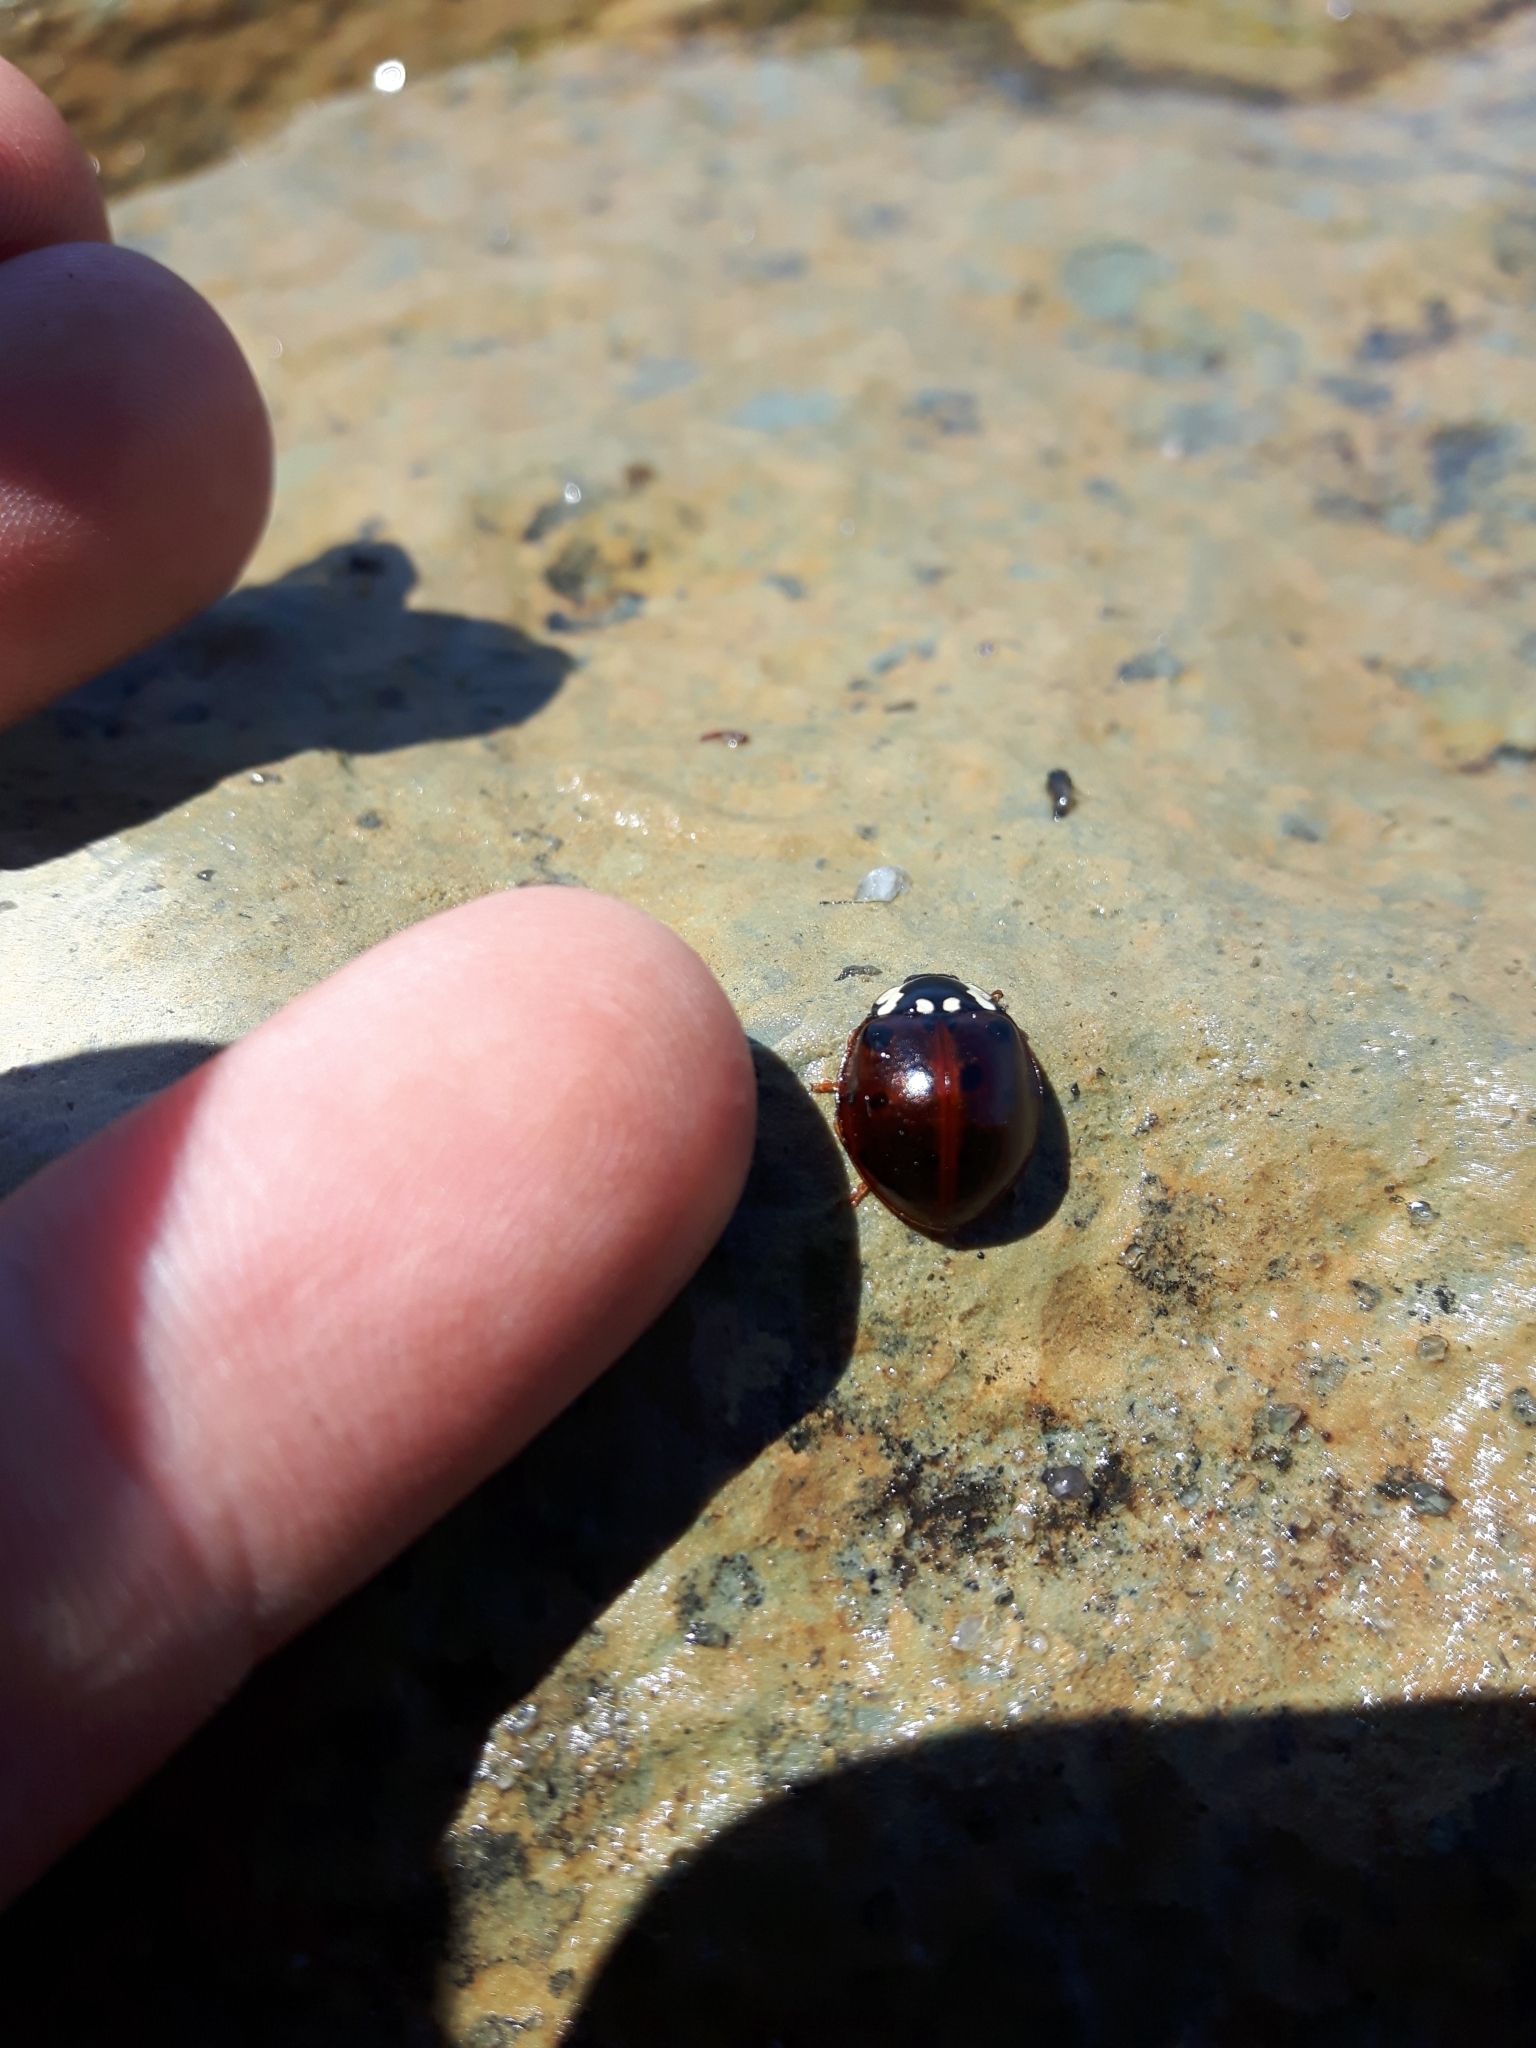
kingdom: Animalia
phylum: Arthropoda
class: Insecta
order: Coleoptera
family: Coccinellidae
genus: Anatis
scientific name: Anatis labiculata
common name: Fifteen-spotted lady beetle
